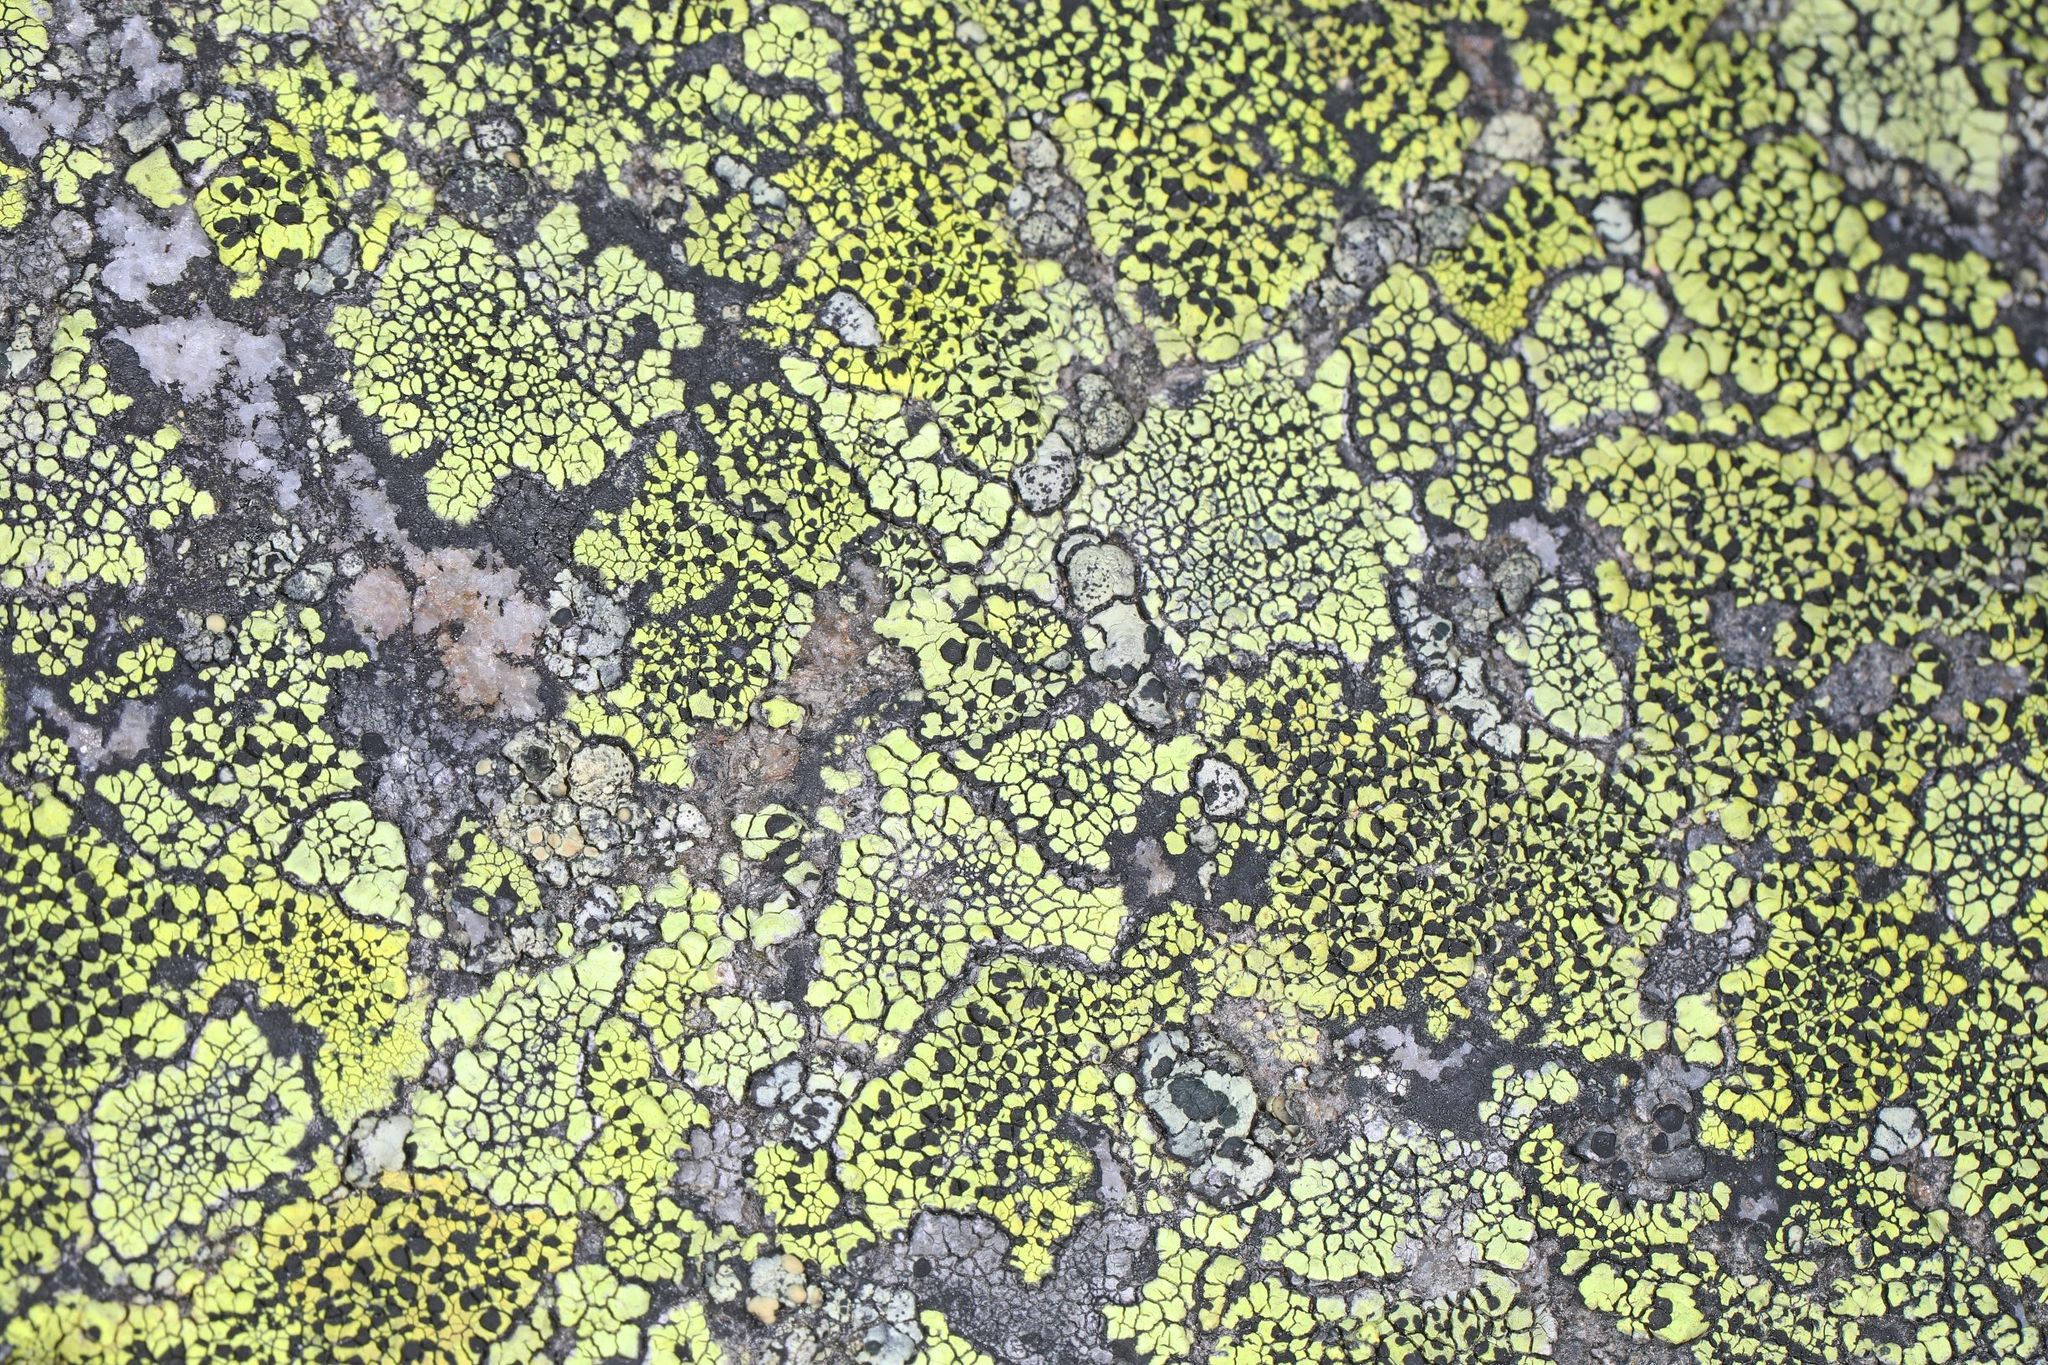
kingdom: Fungi
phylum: Ascomycota
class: Lecanoromycetes
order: Rhizocarpales
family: Rhizocarpaceae
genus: Rhizocarpon
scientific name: Rhizocarpon geographicum
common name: Yellow map lichen
